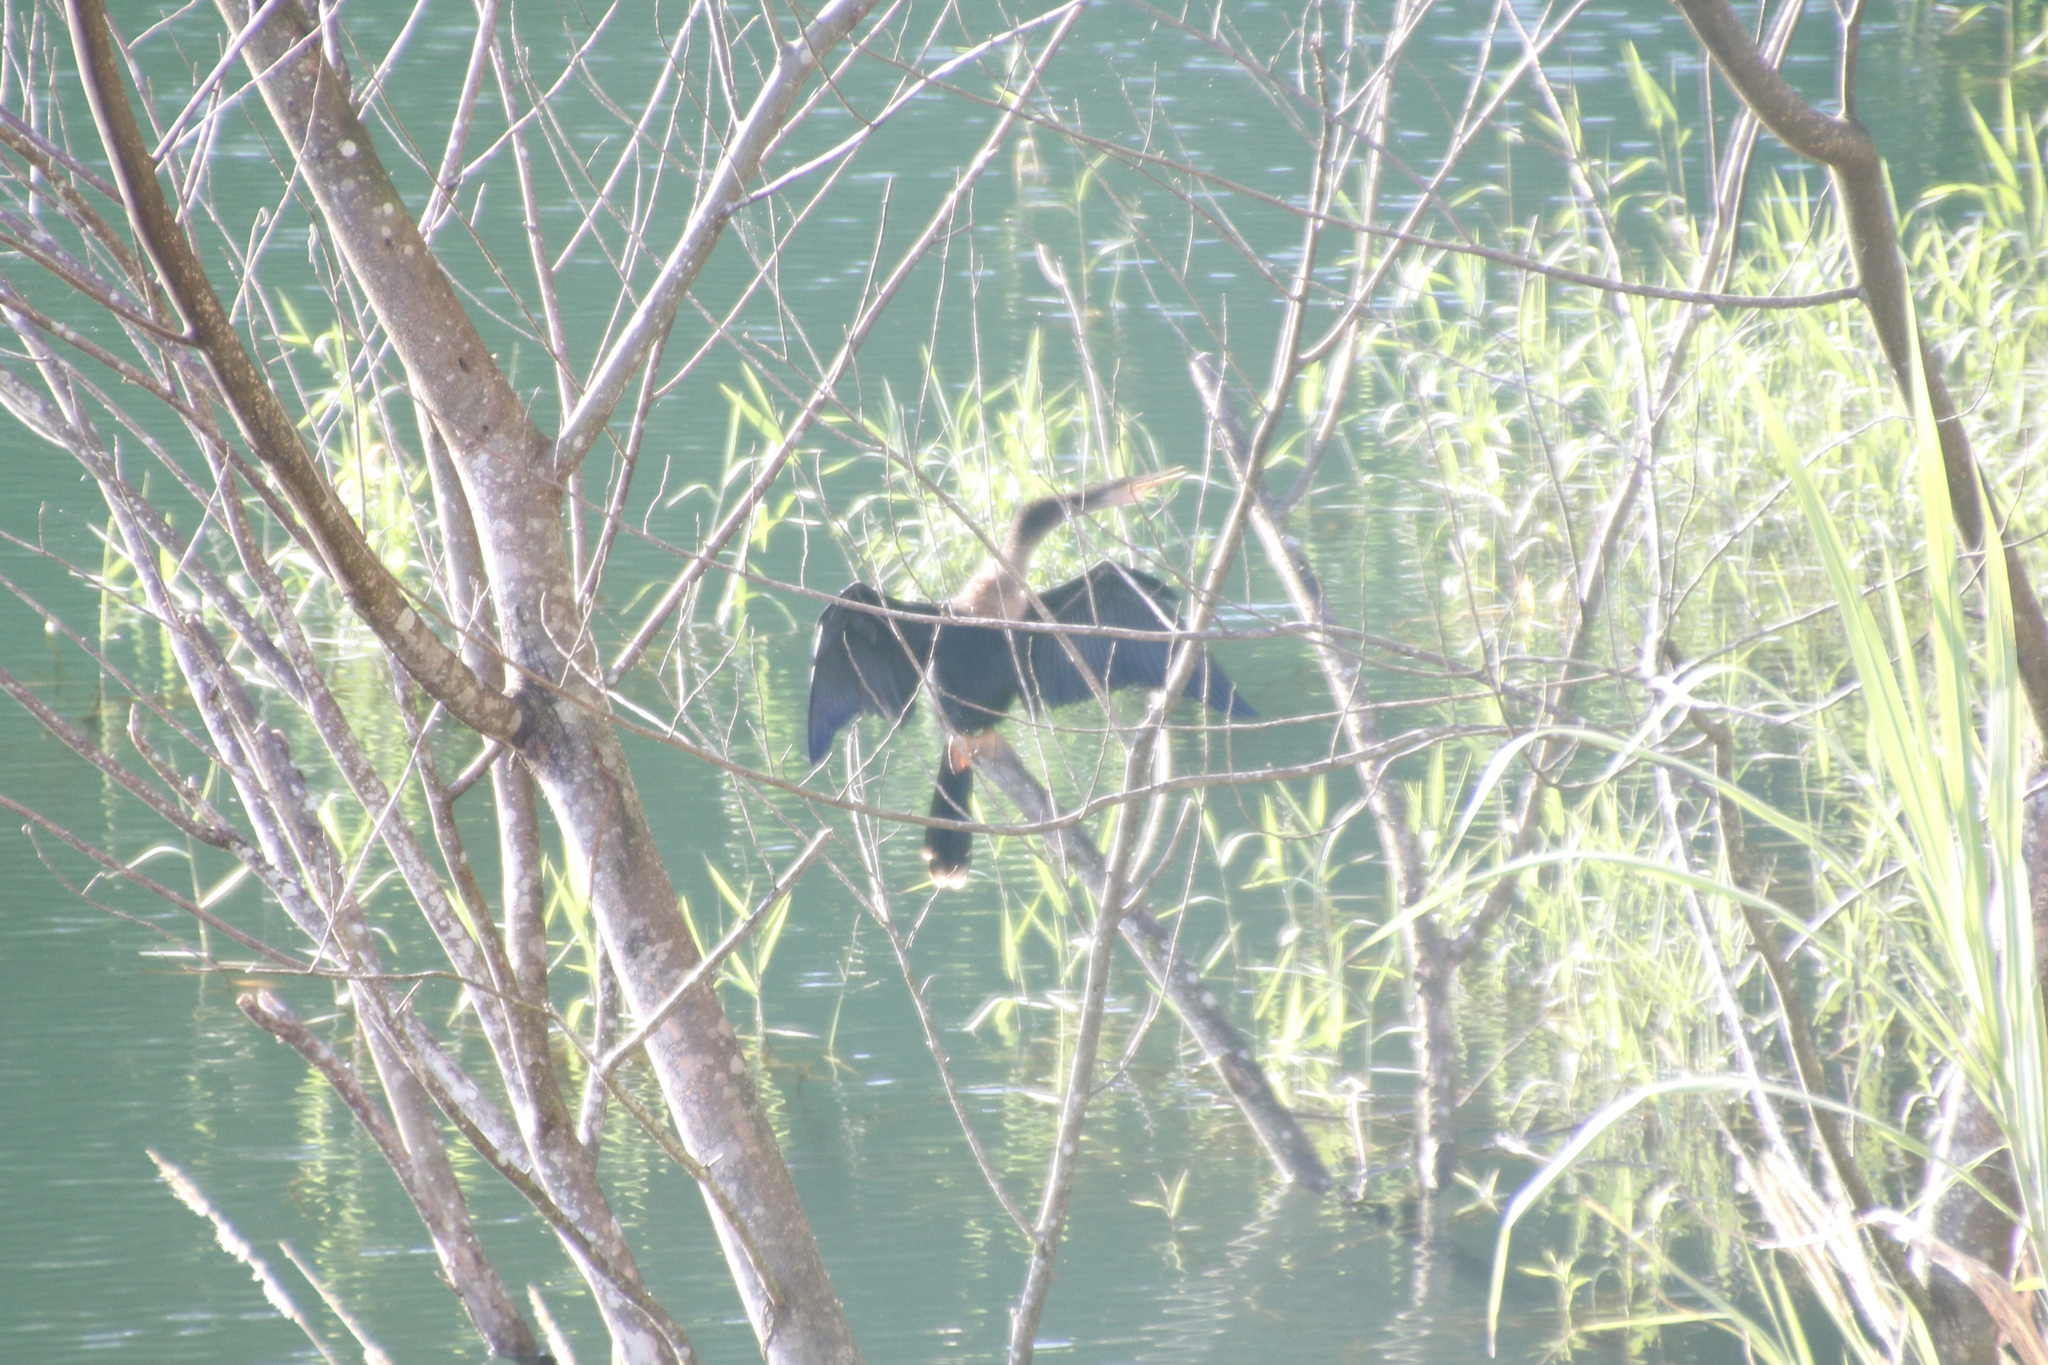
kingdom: Animalia
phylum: Chordata
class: Aves
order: Suliformes
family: Anhingidae
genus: Anhinga
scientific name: Anhinga anhinga
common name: Anhinga
